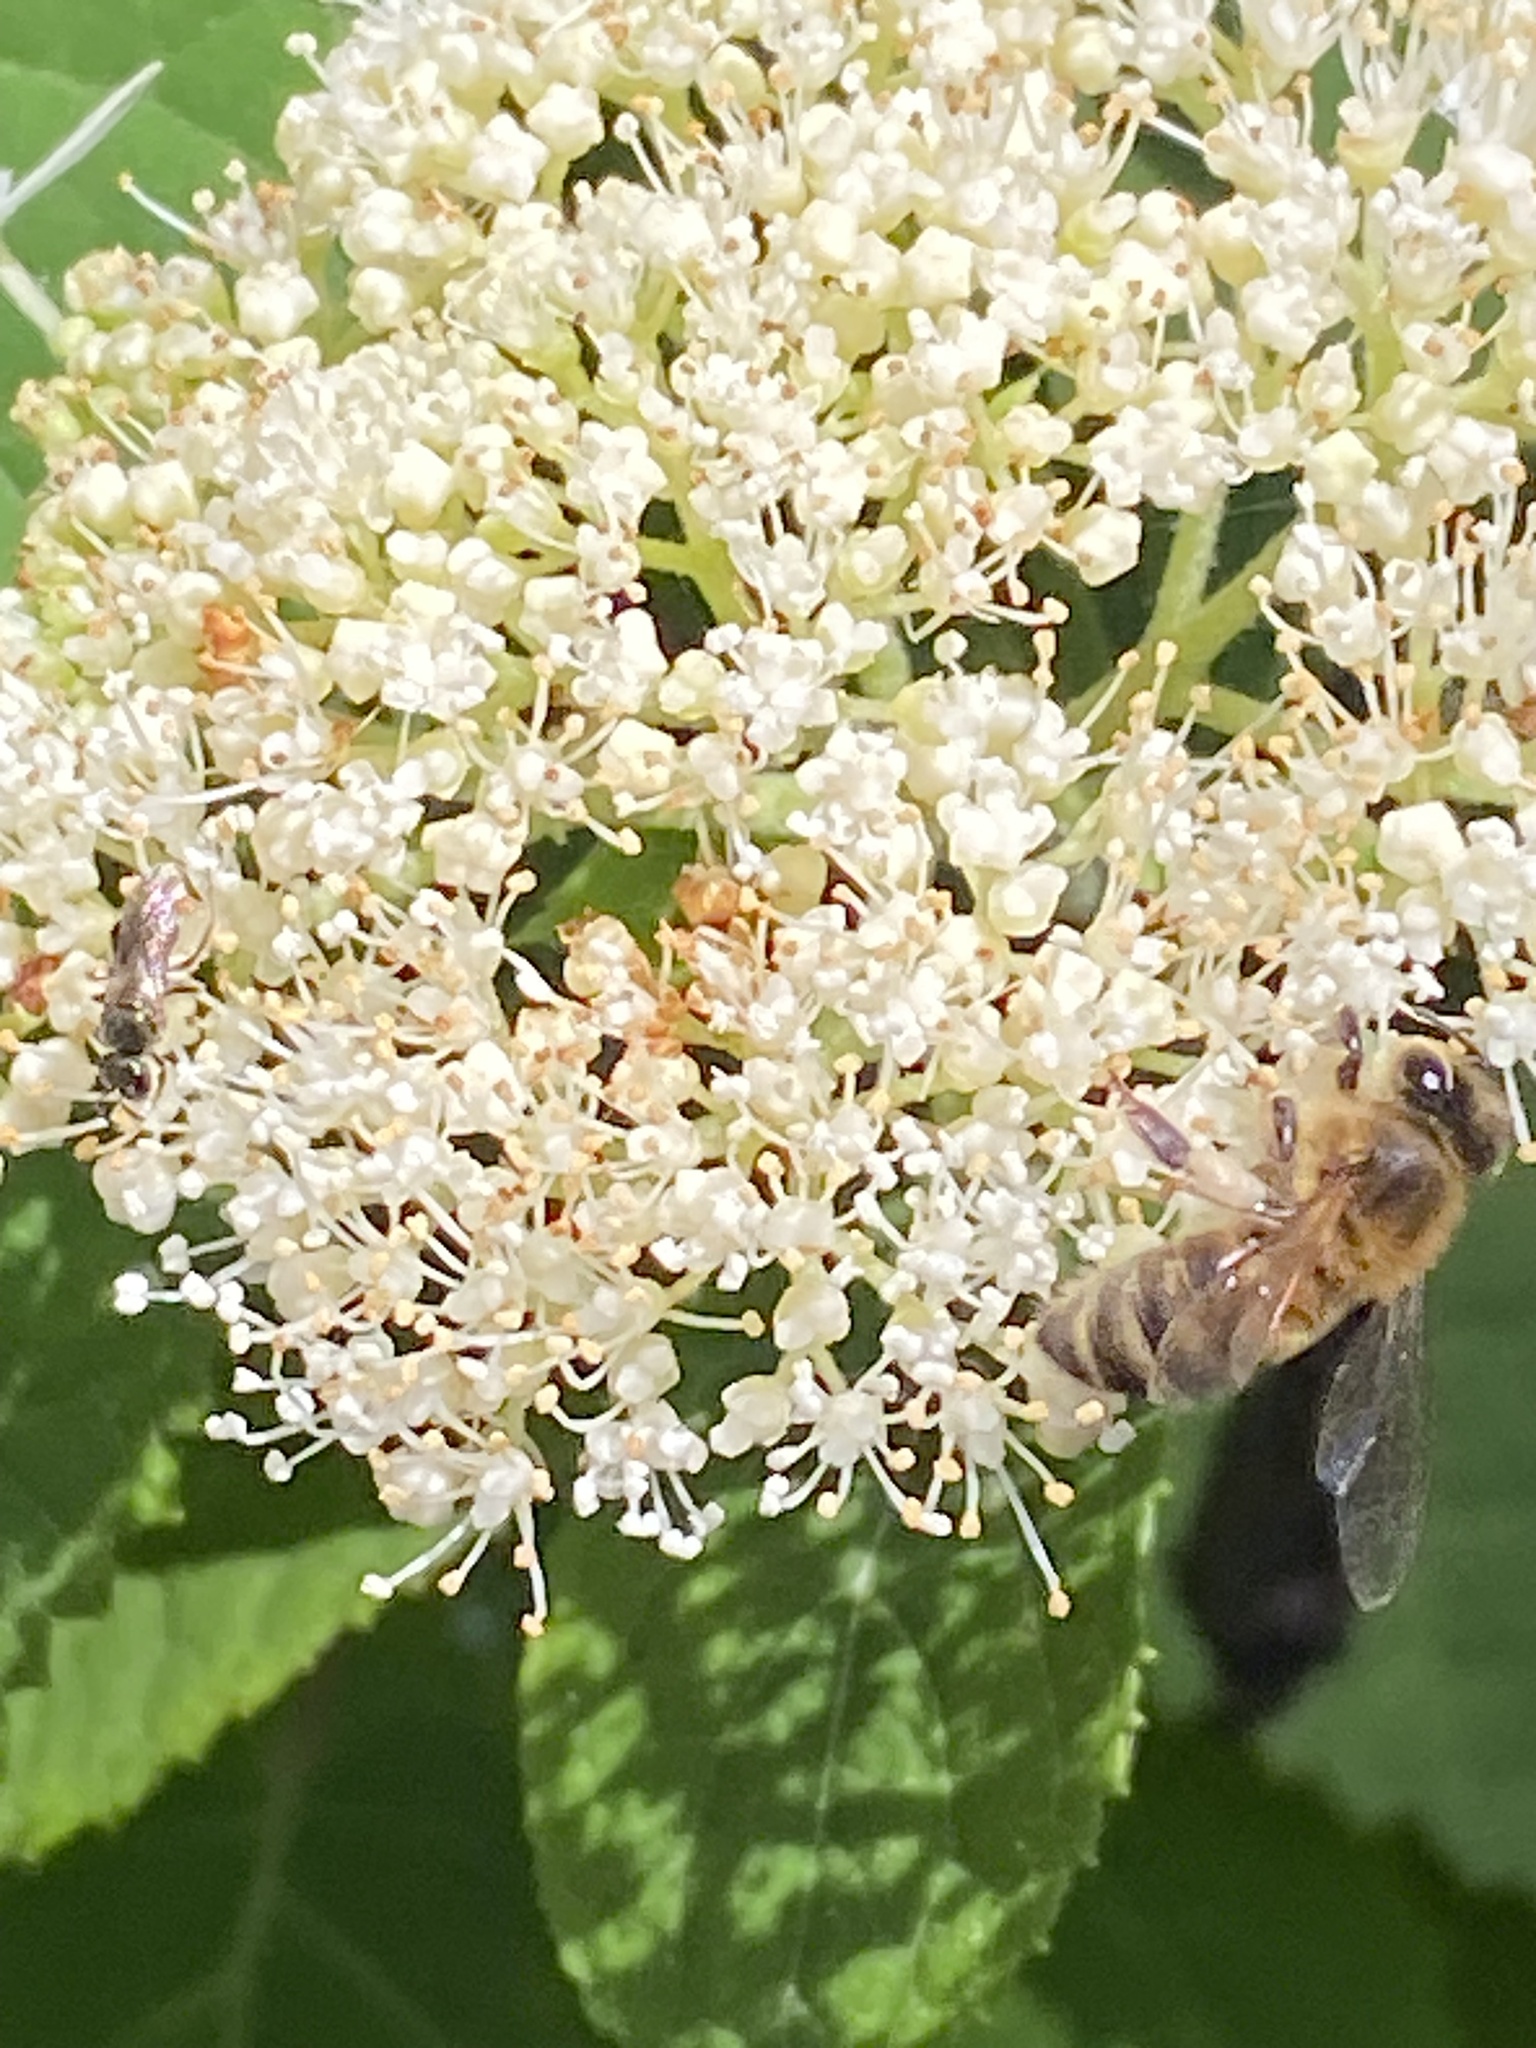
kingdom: Animalia
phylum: Arthropoda
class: Insecta
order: Hymenoptera
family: Apidae
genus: Apis
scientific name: Apis mellifera
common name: Honey bee
